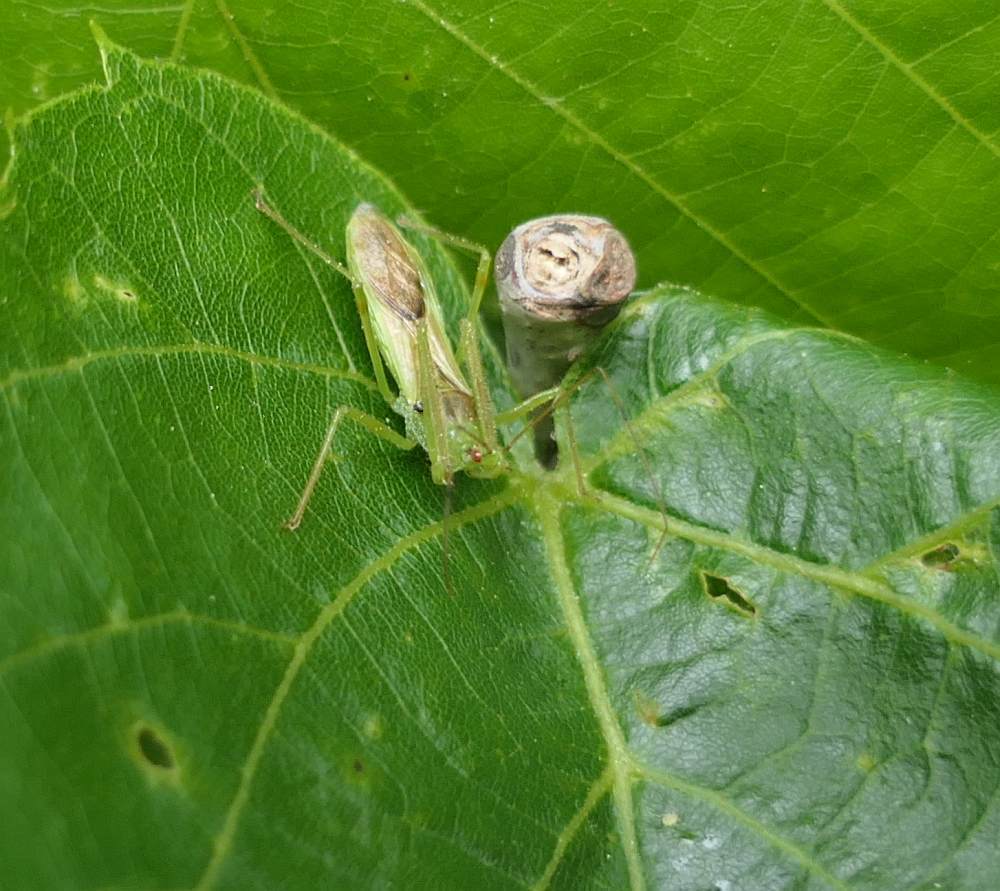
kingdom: Animalia
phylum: Arthropoda
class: Insecta
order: Hemiptera
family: Reduviidae
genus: Zelus
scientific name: Zelus luridus
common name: Pale green assassin bug
